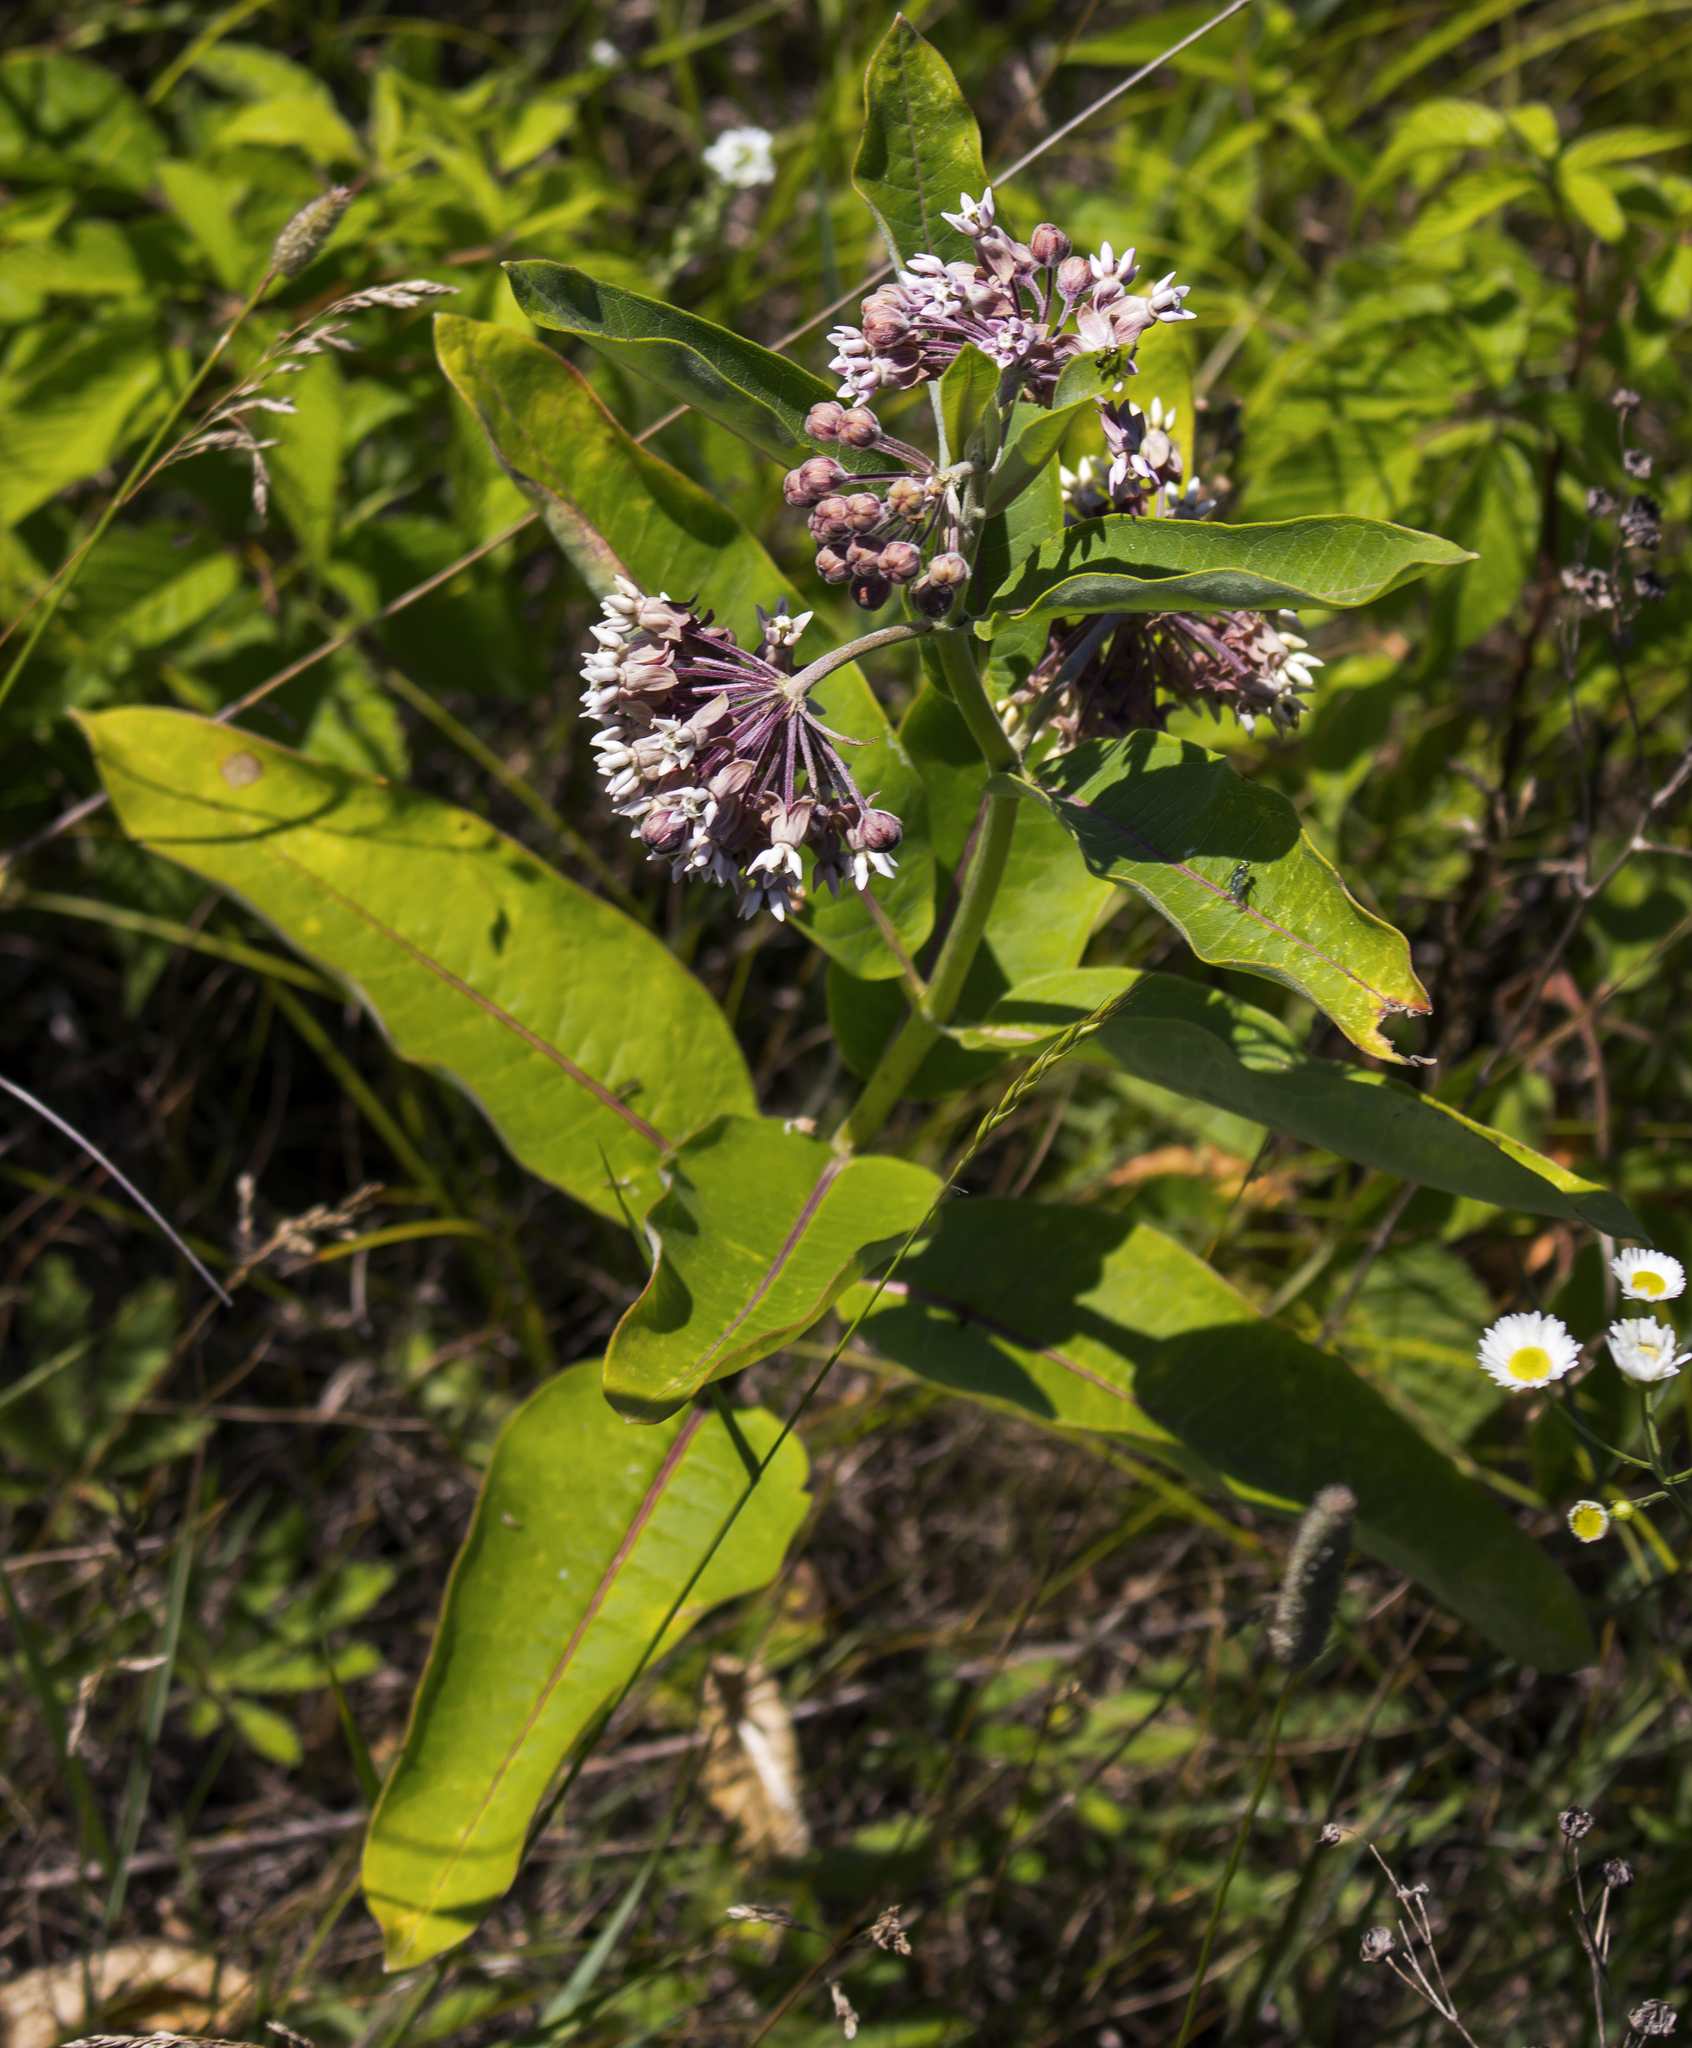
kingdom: Plantae
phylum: Tracheophyta
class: Magnoliopsida
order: Gentianales
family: Apocynaceae
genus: Asclepias
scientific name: Asclepias syriaca
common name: Common milkweed
